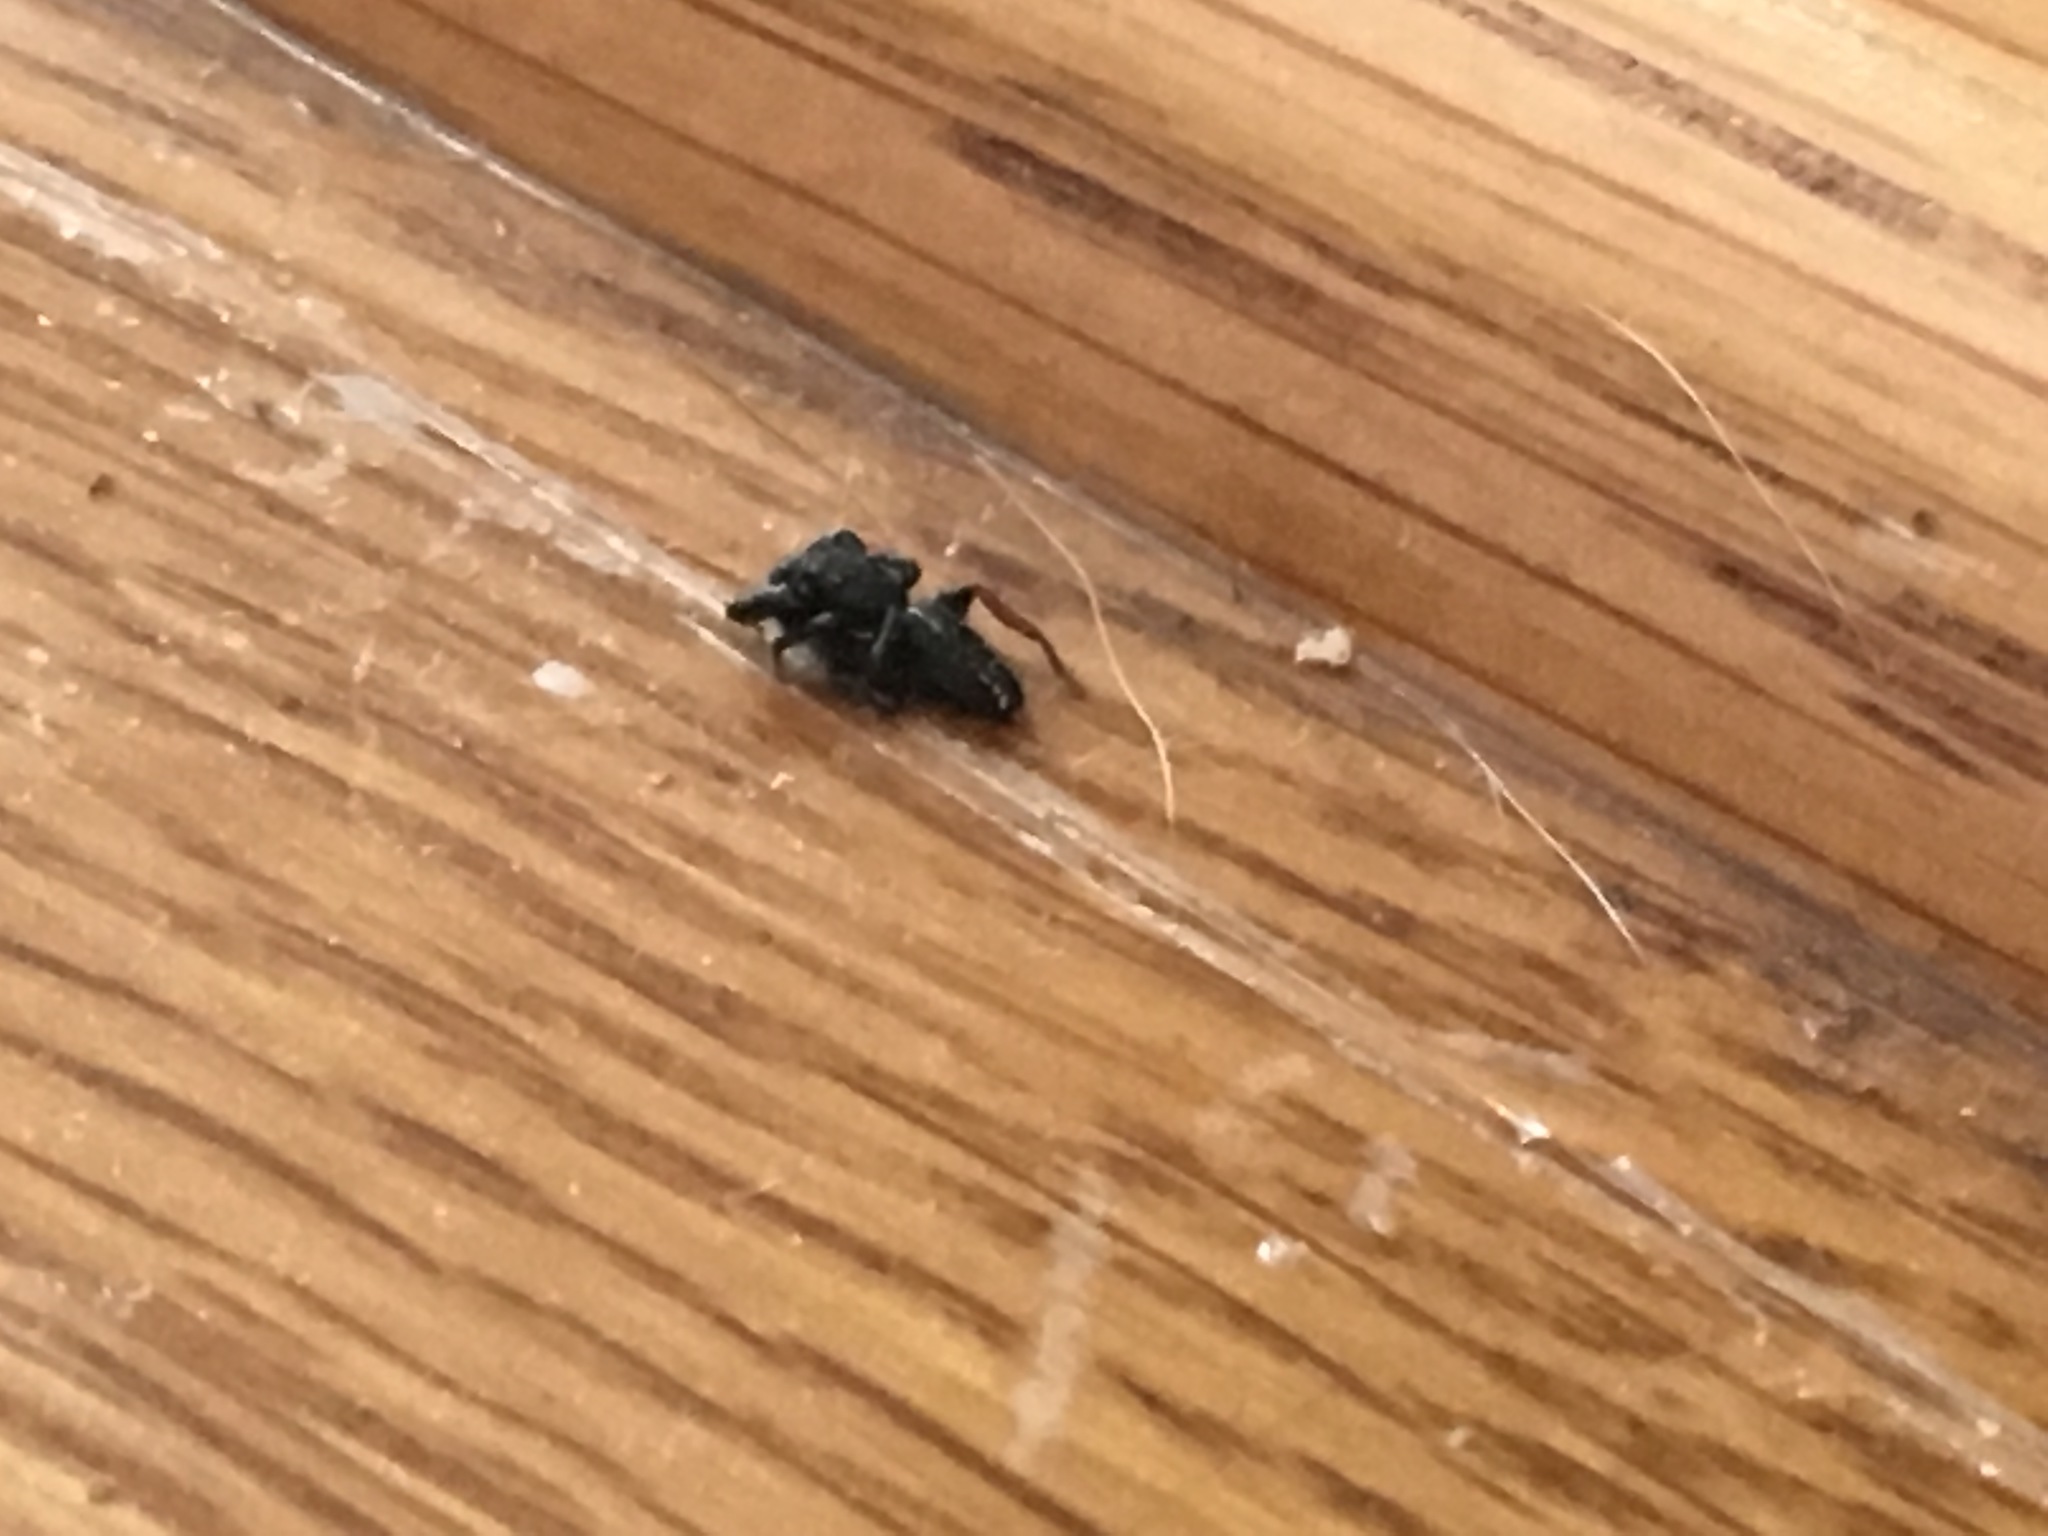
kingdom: Animalia
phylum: Arthropoda
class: Arachnida
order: Araneae
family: Salticidae
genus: Metacyrba
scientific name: Metacyrba taeniola
